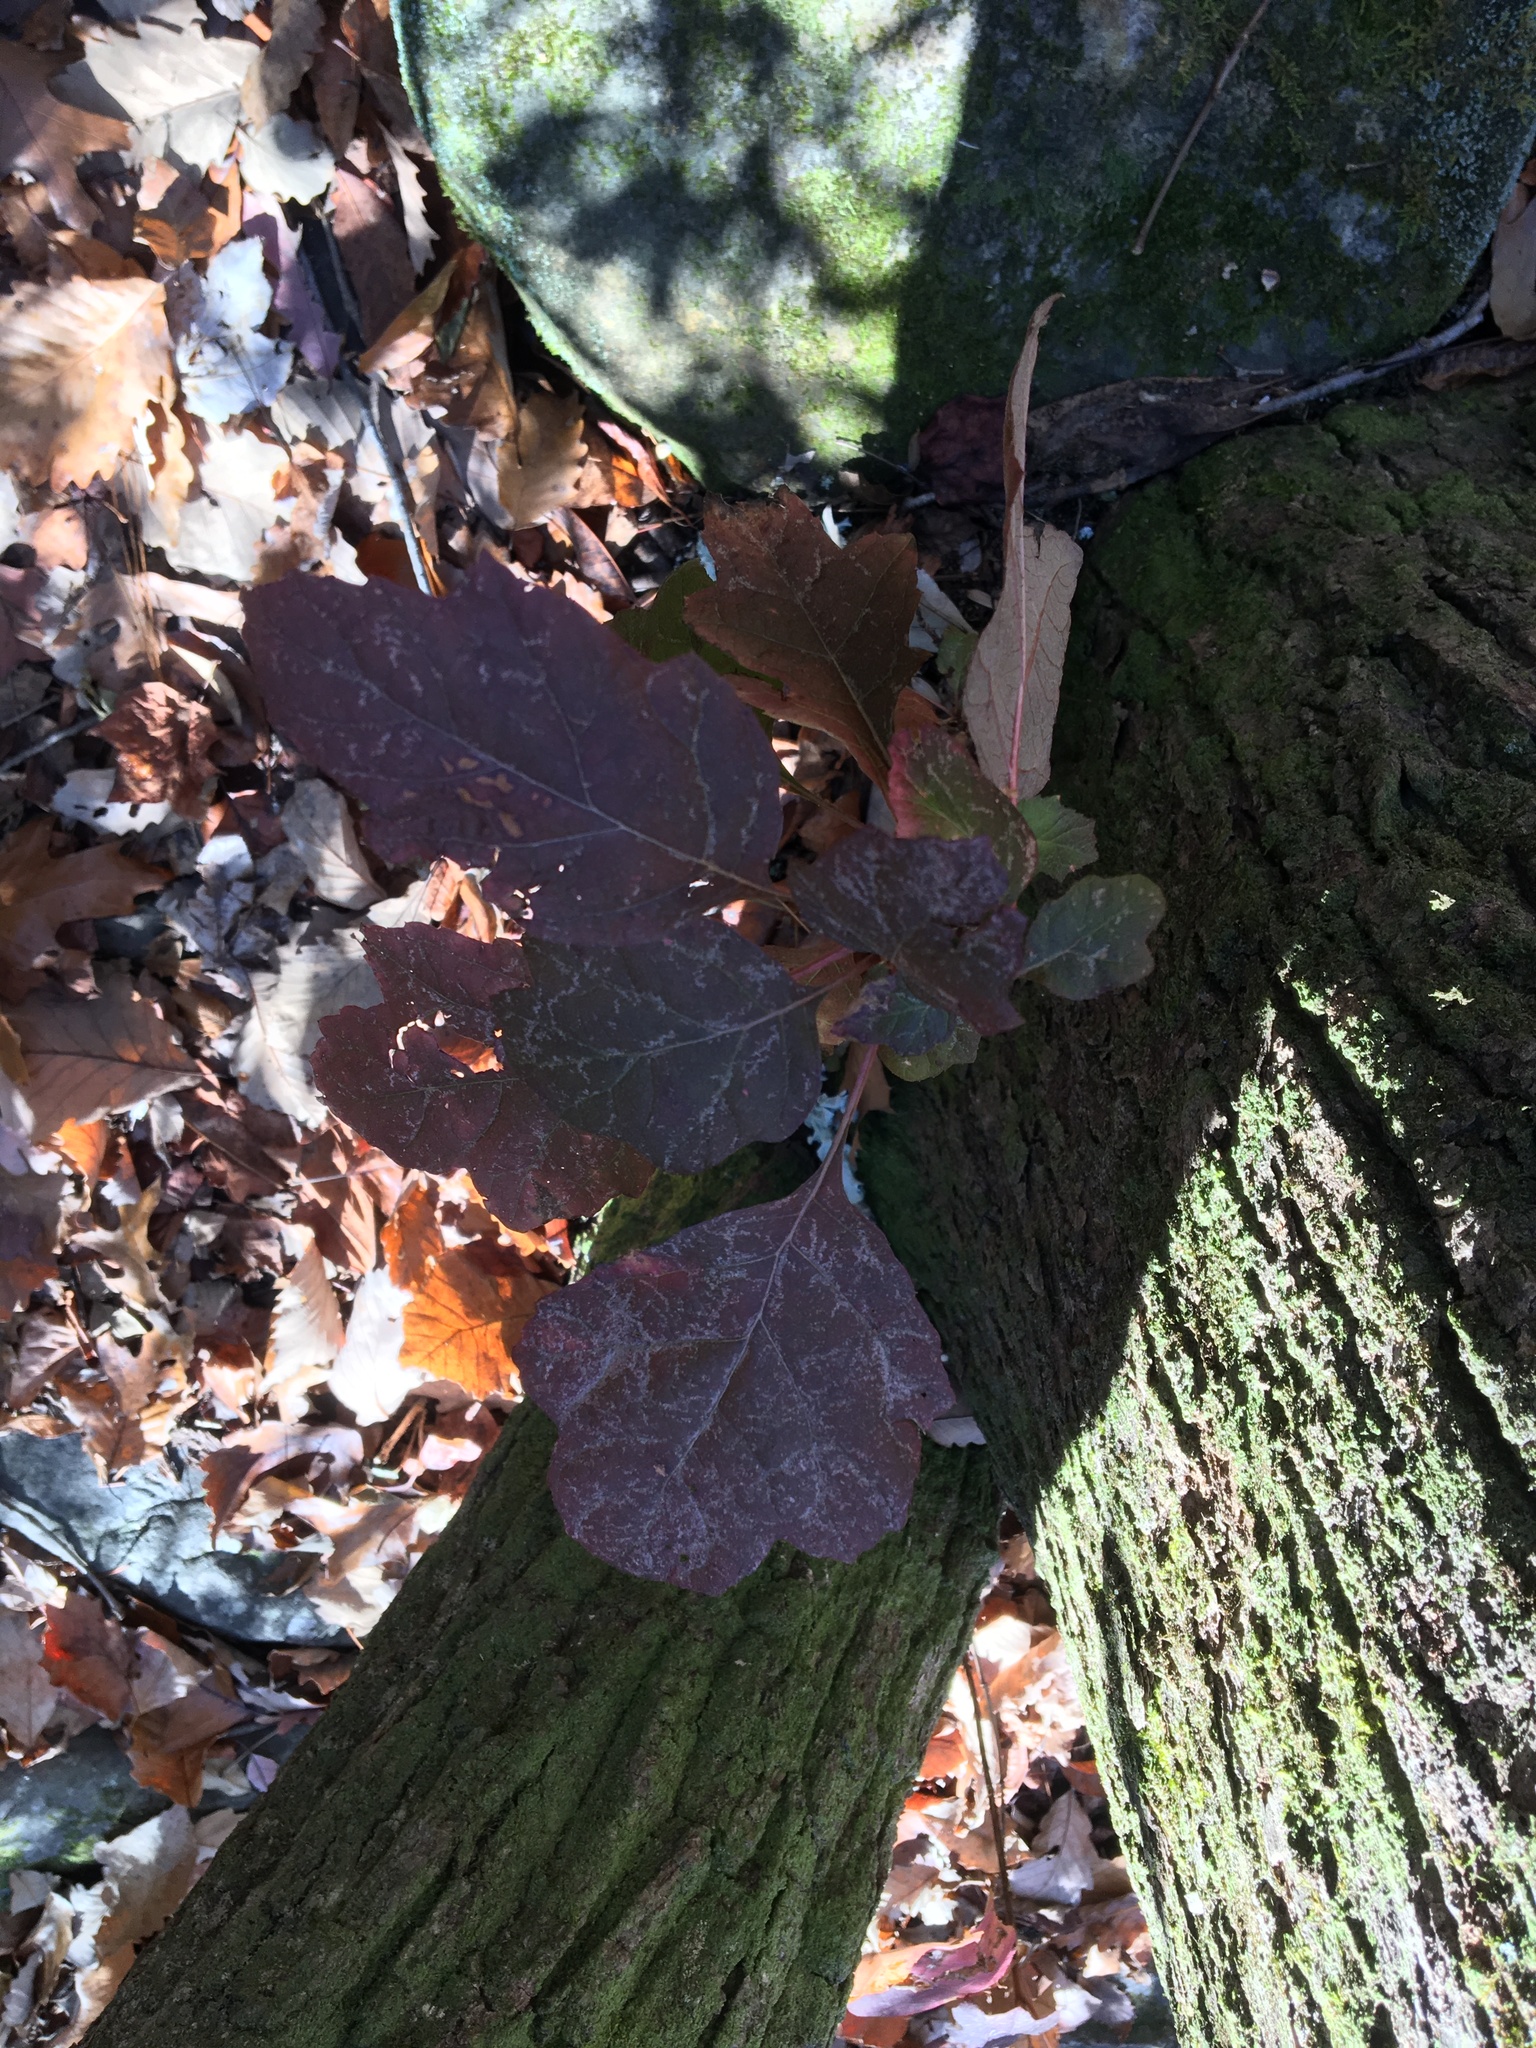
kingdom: Plantae
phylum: Tracheophyta
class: Magnoliopsida
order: Cornales
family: Hydrangeaceae
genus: Hydrangea
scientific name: Hydrangea quercifolia
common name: Oak-leaf hydrangea
